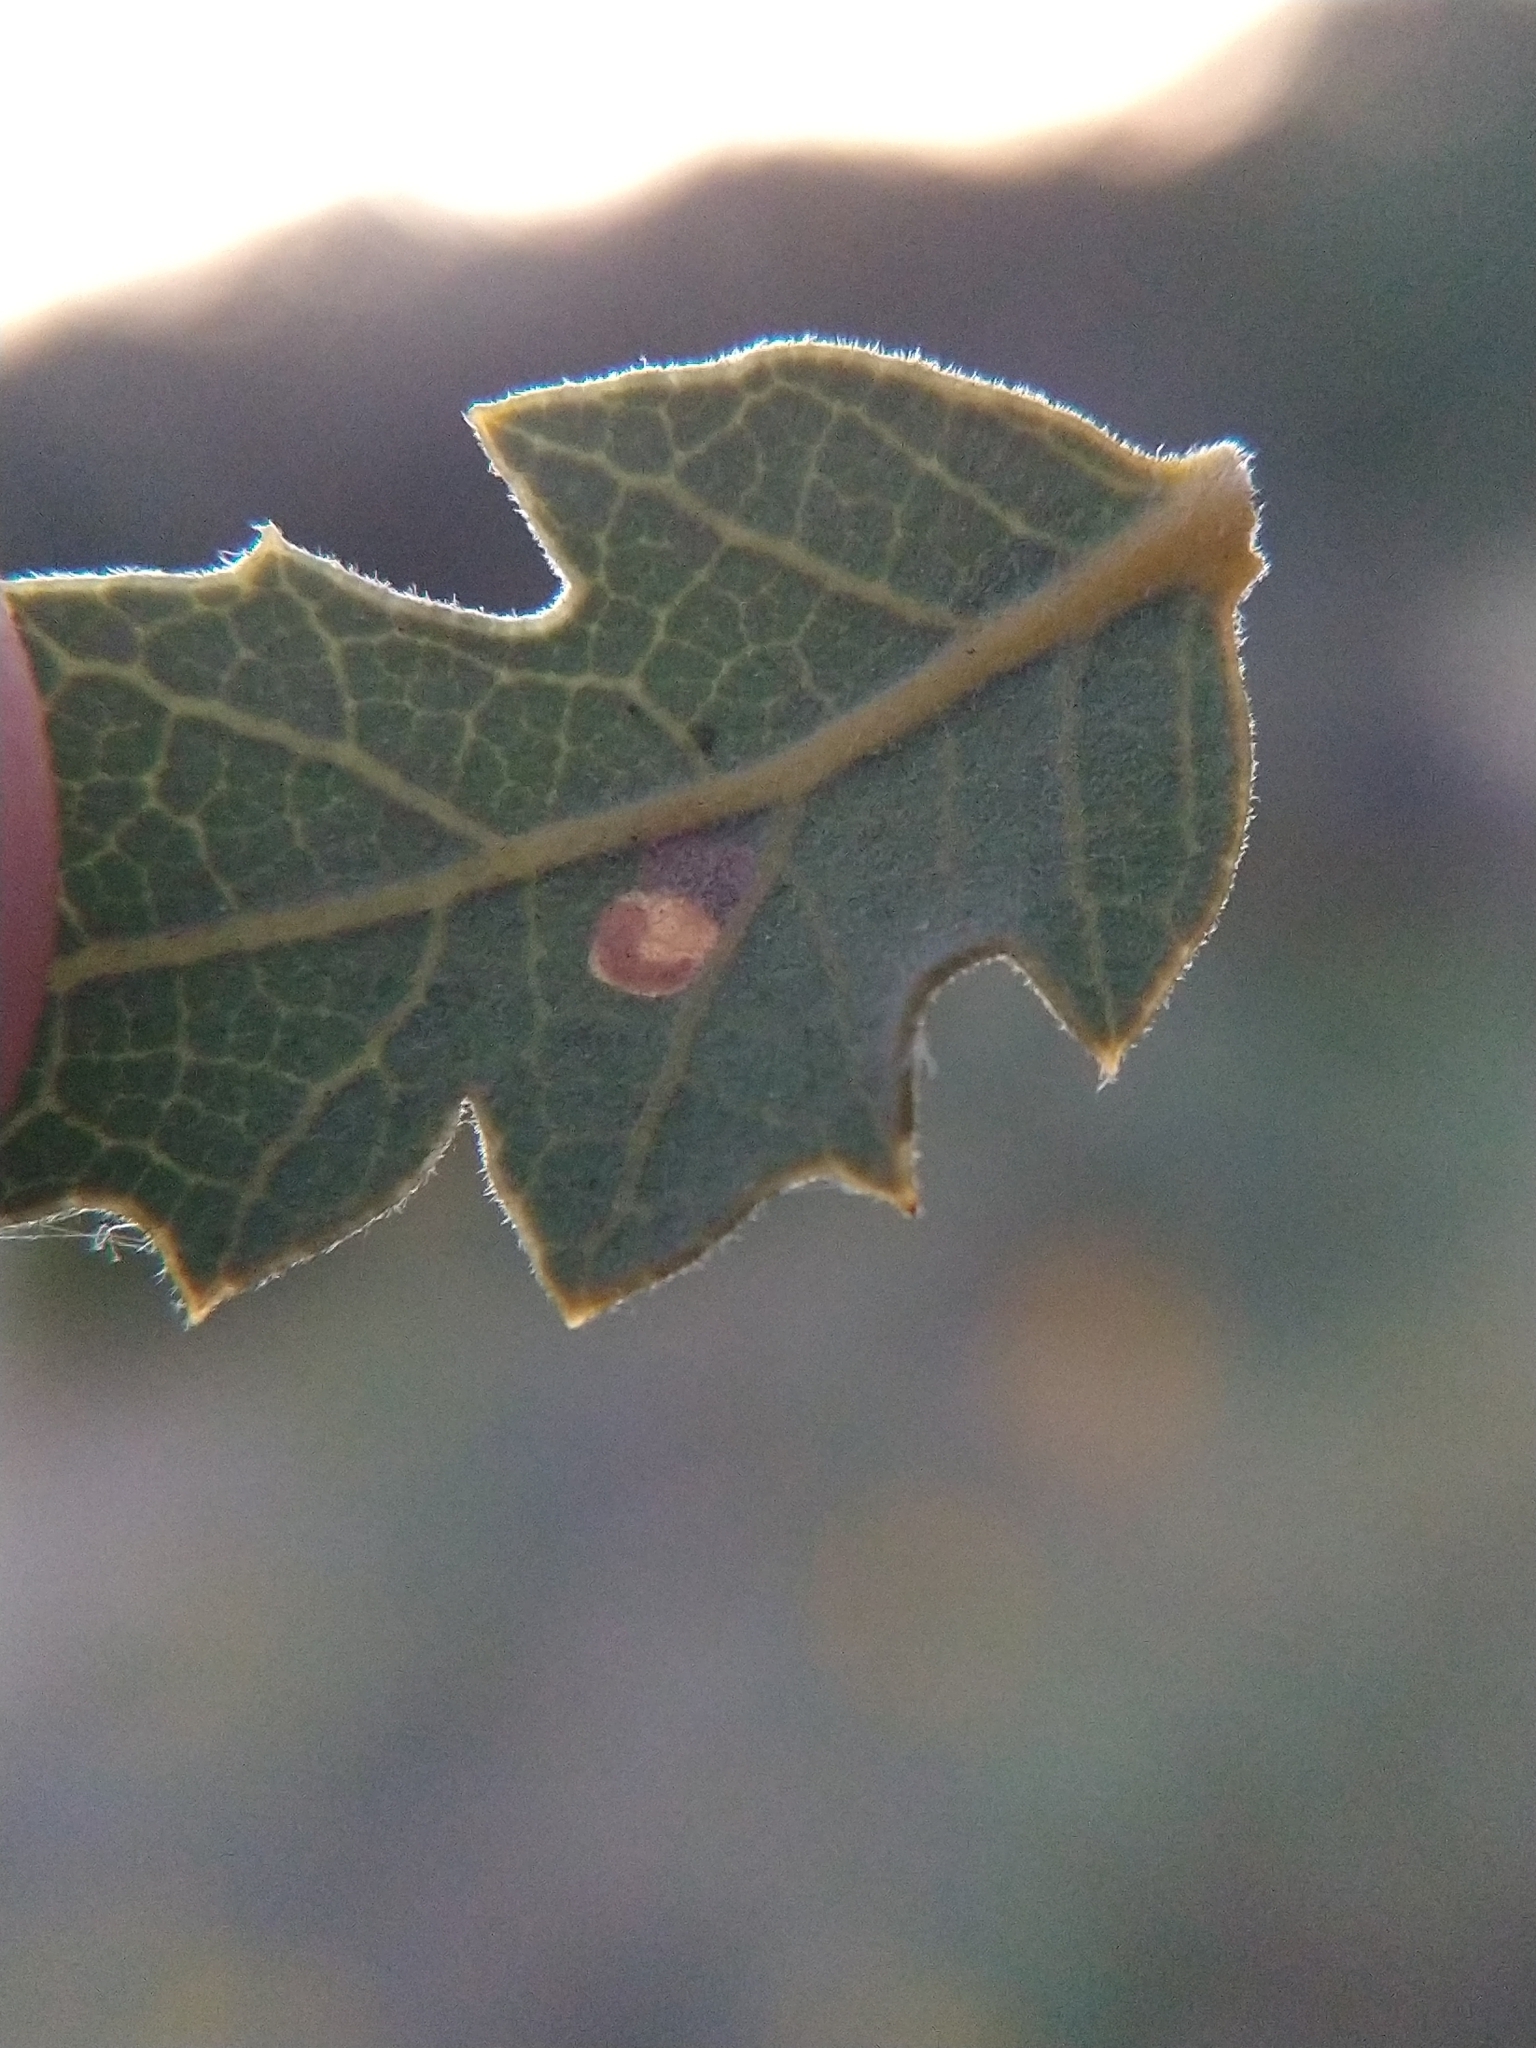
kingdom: Animalia
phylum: Arthropoda
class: Insecta
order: Lepidoptera
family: Heliozelidae
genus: Coptodisca
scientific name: Coptodisca
